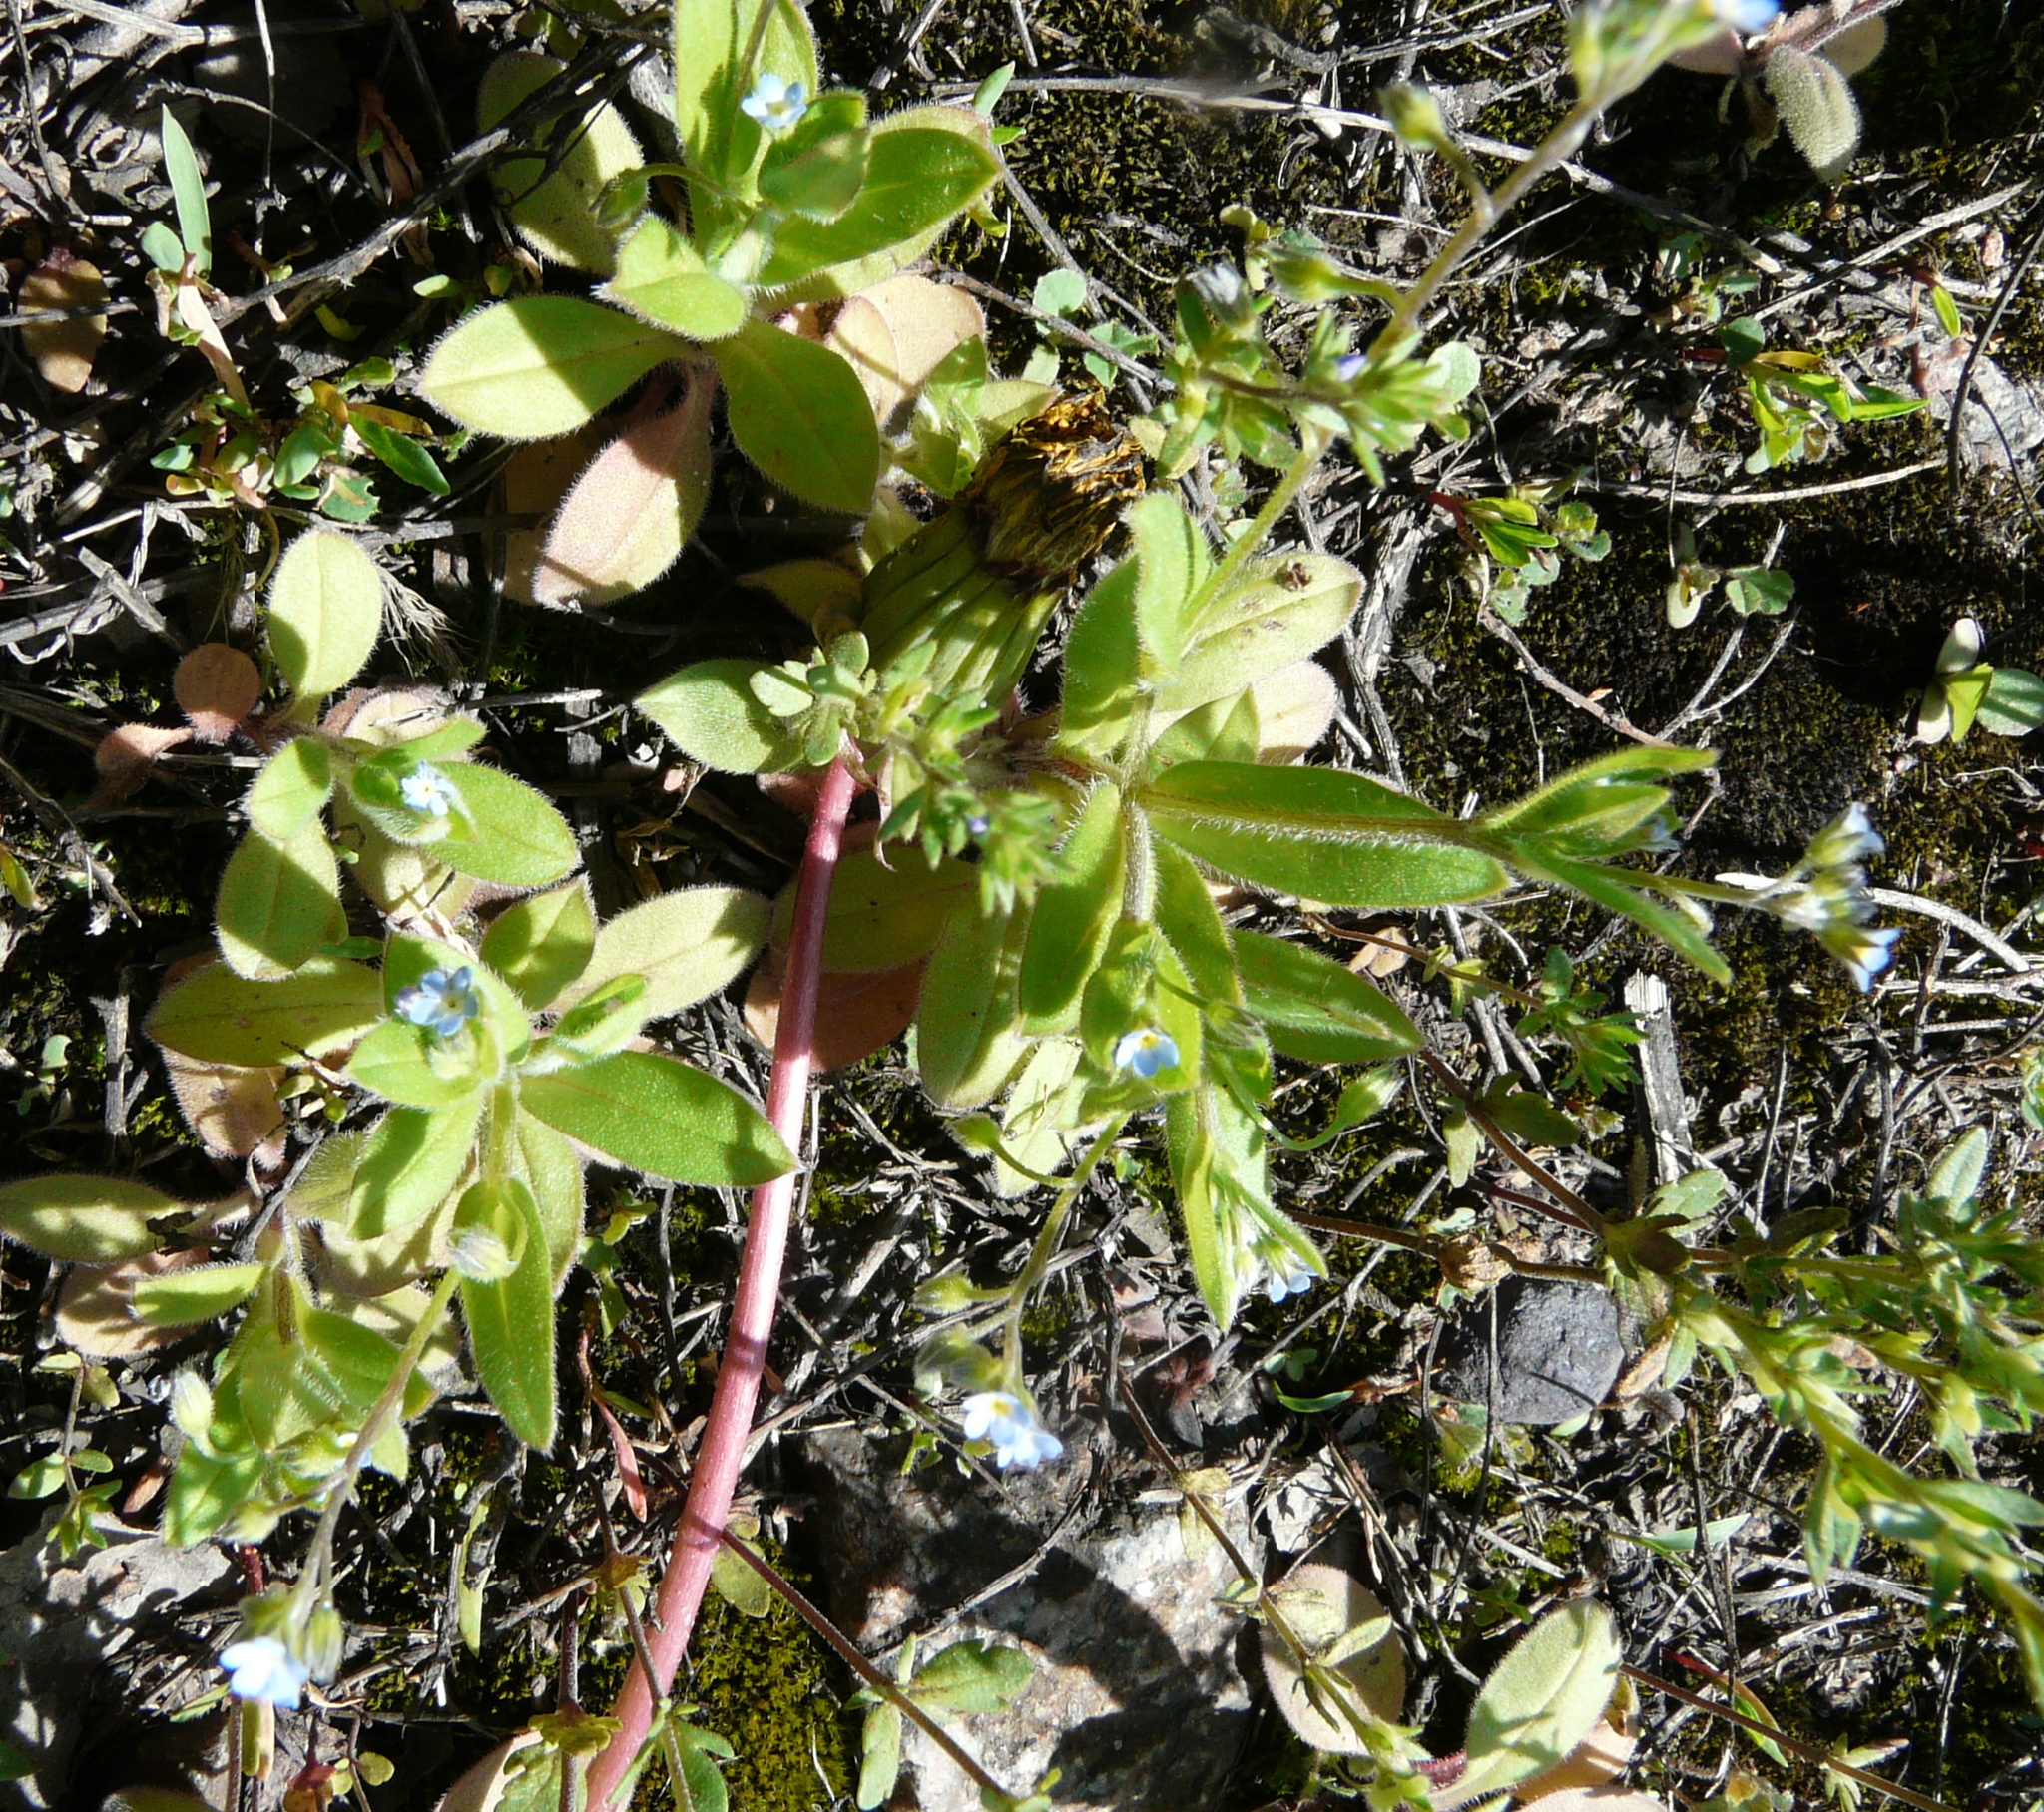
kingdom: Plantae
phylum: Tracheophyta
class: Magnoliopsida
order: Boraginales
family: Boraginaceae
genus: Myosotis
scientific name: Myosotis sparsiflora
